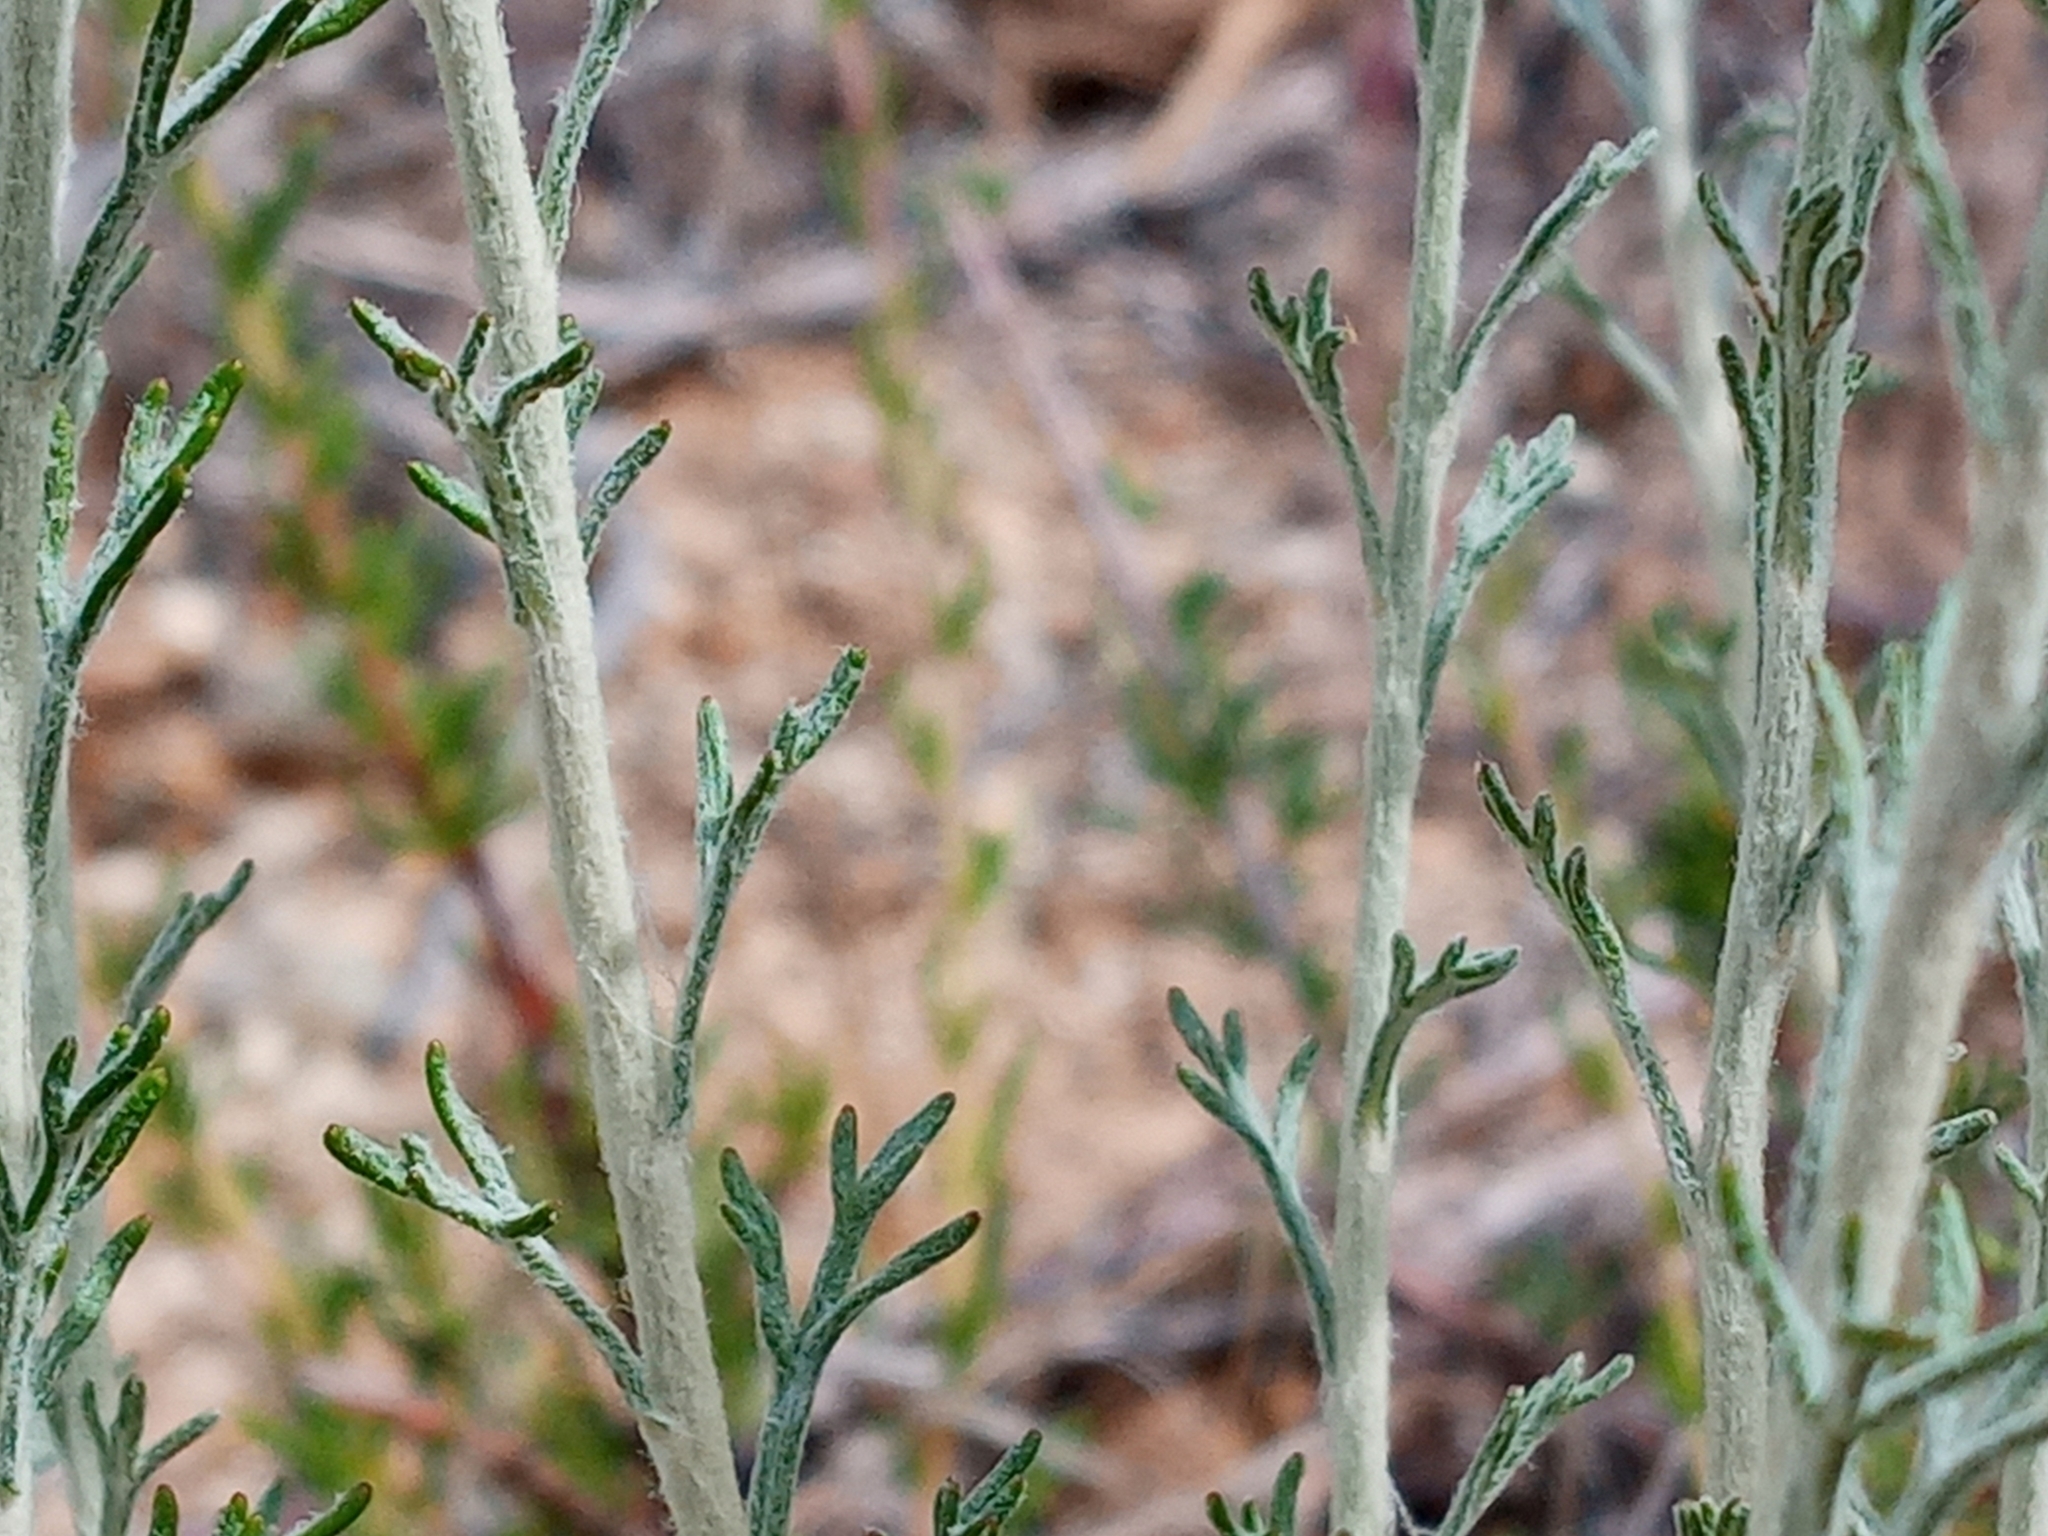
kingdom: Plantae
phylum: Tracheophyta
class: Magnoliopsida
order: Asterales
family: Asteraceae
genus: Eriophyllum
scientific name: Eriophyllum confertiflorum
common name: Golden-yarrow
